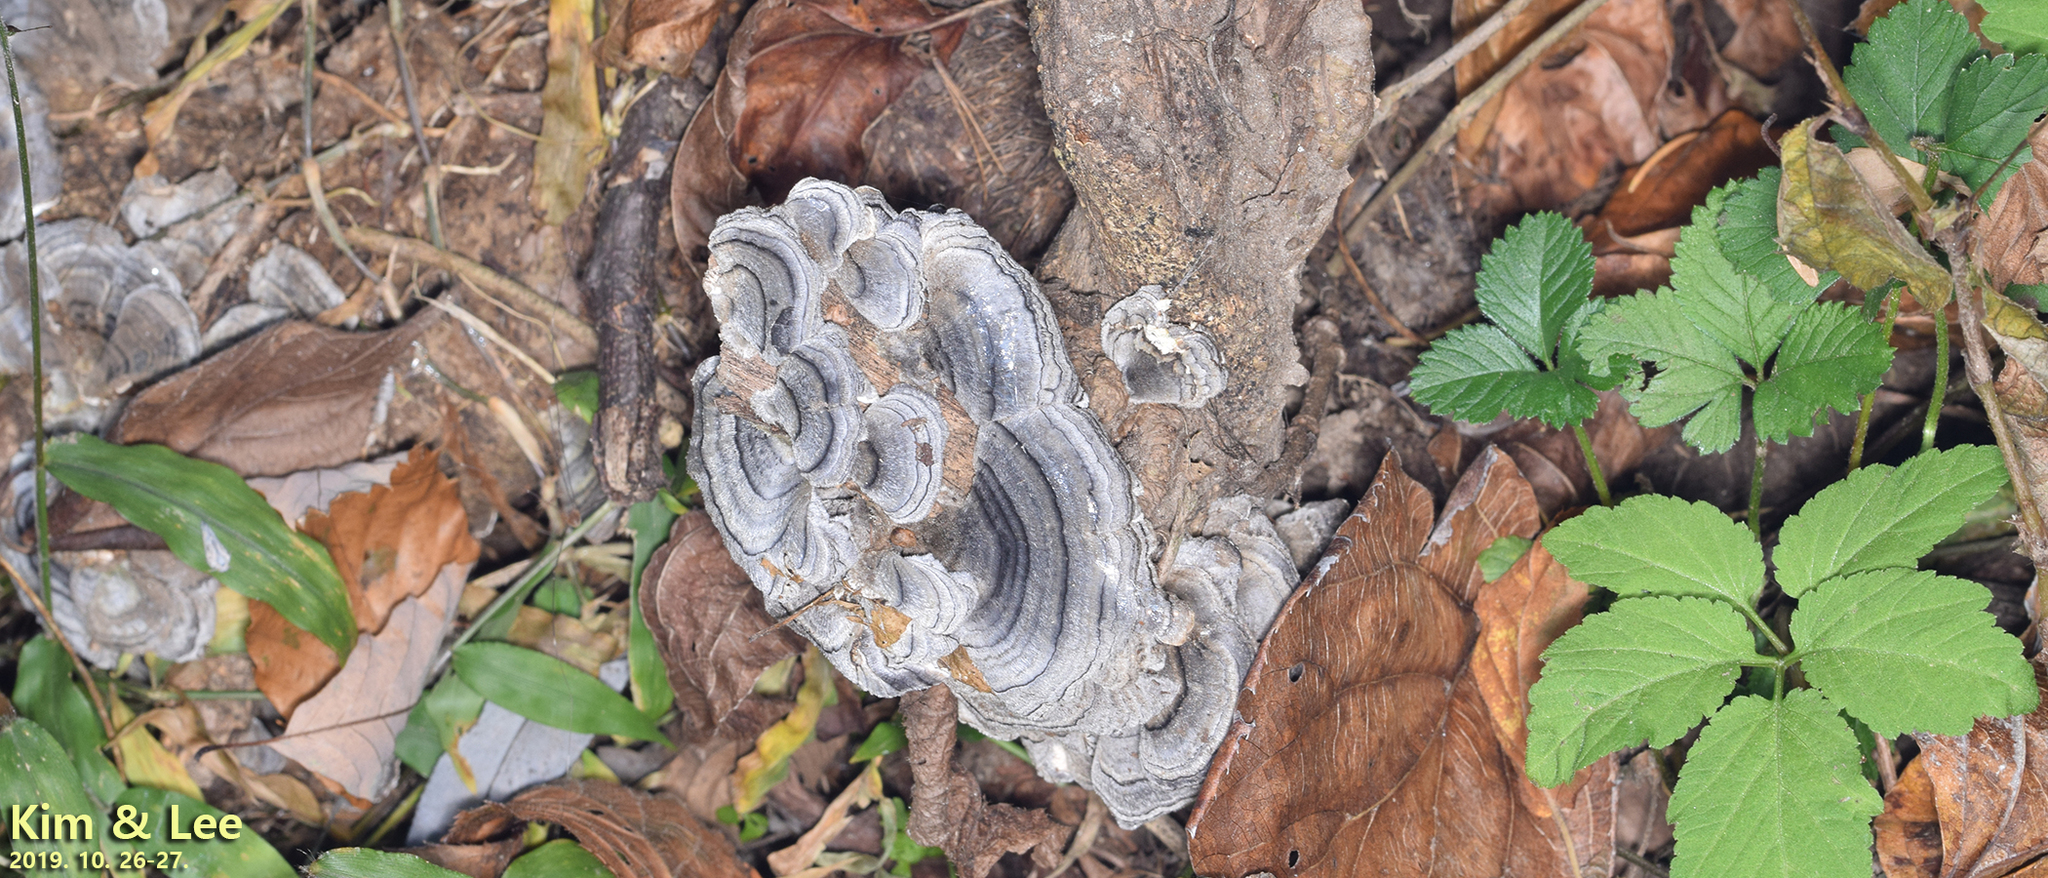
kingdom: Fungi
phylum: Basidiomycota
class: Agaricomycetes
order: Polyporales
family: Polyporaceae
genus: Trametes
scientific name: Trametes versicolor
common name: Turkeytail
